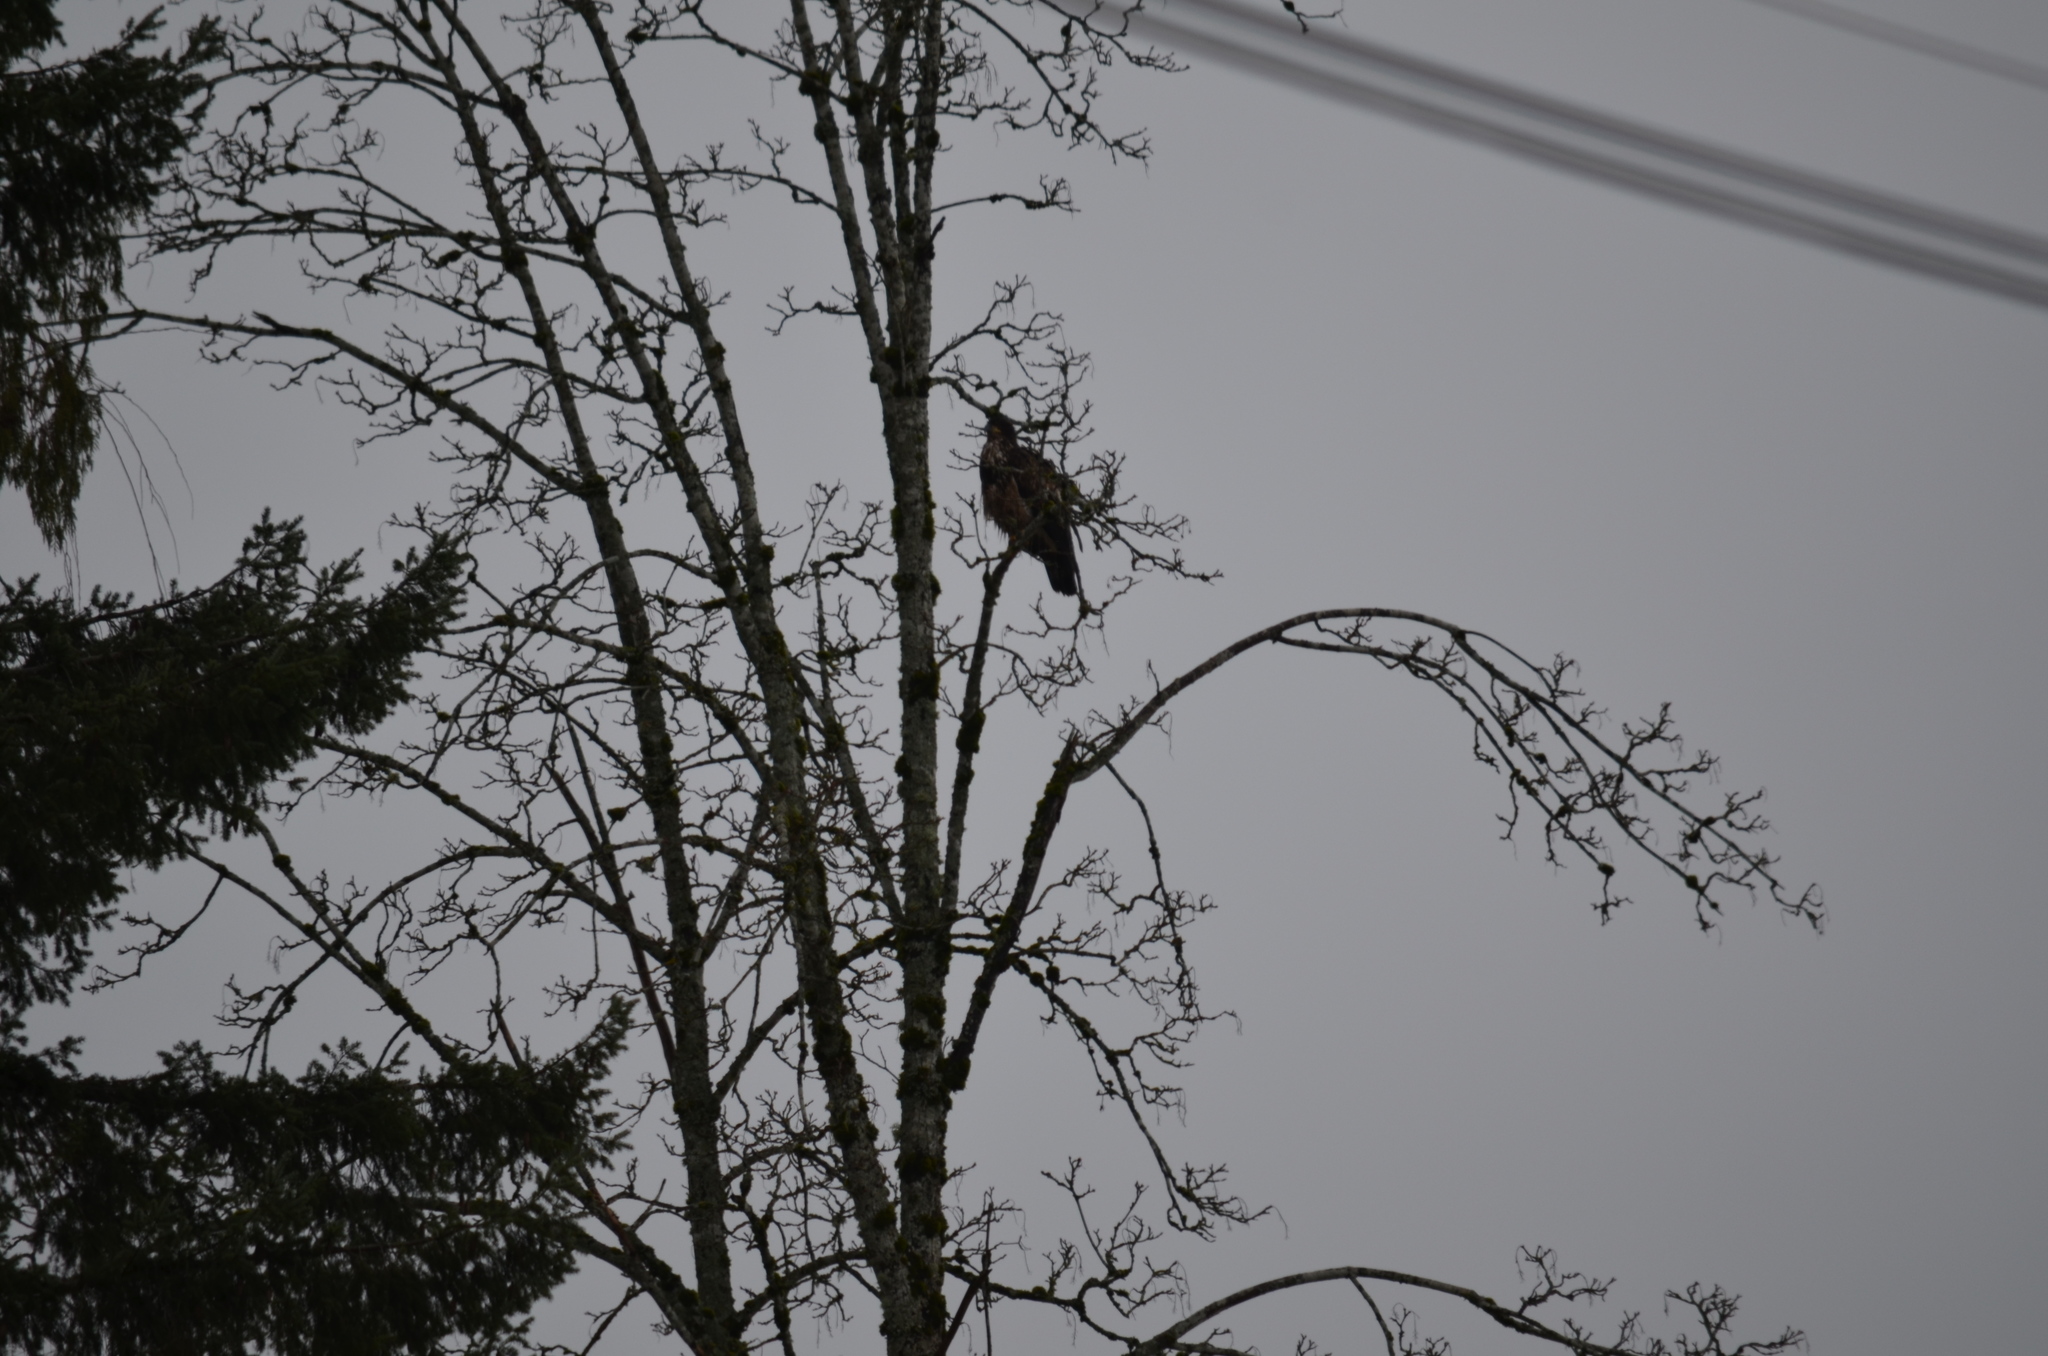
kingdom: Animalia
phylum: Chordata
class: Aves
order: Accipitriformes
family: Accipitridae
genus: Haliaeetus
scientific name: Haliaeetus leucocephalus
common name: Bald eagle
